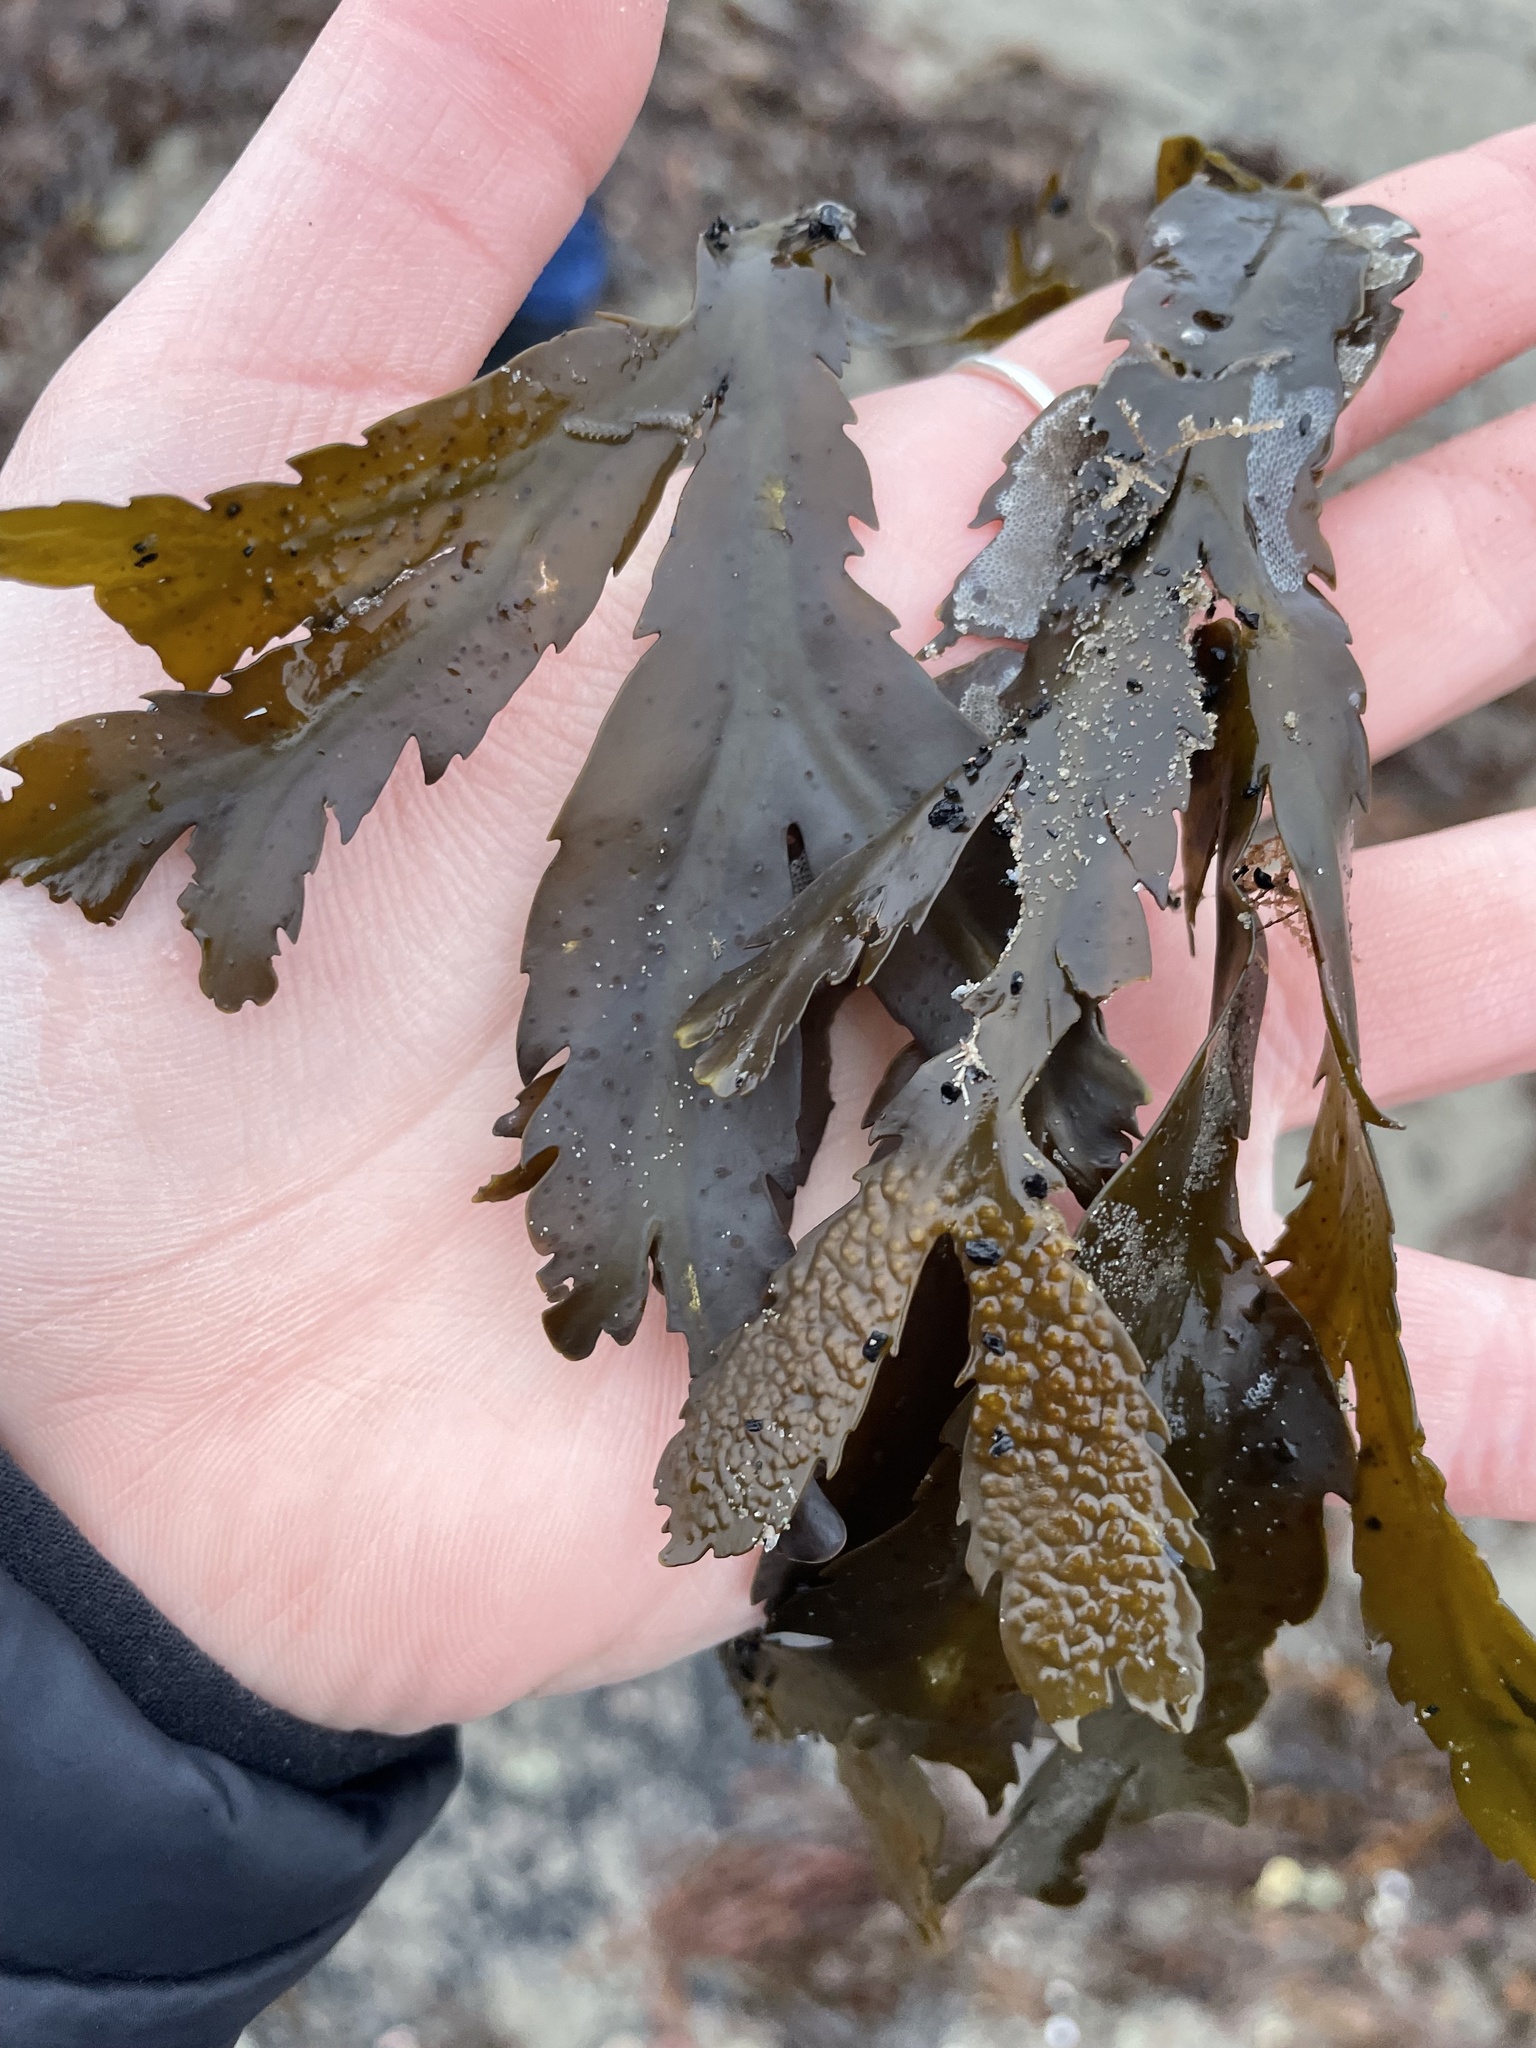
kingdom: Chromista
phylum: Ochrophyta
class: Phaeophyceae
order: Fucales
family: Fucaceae
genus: Fucus
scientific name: Fucus serratus
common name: Toothed wrack
